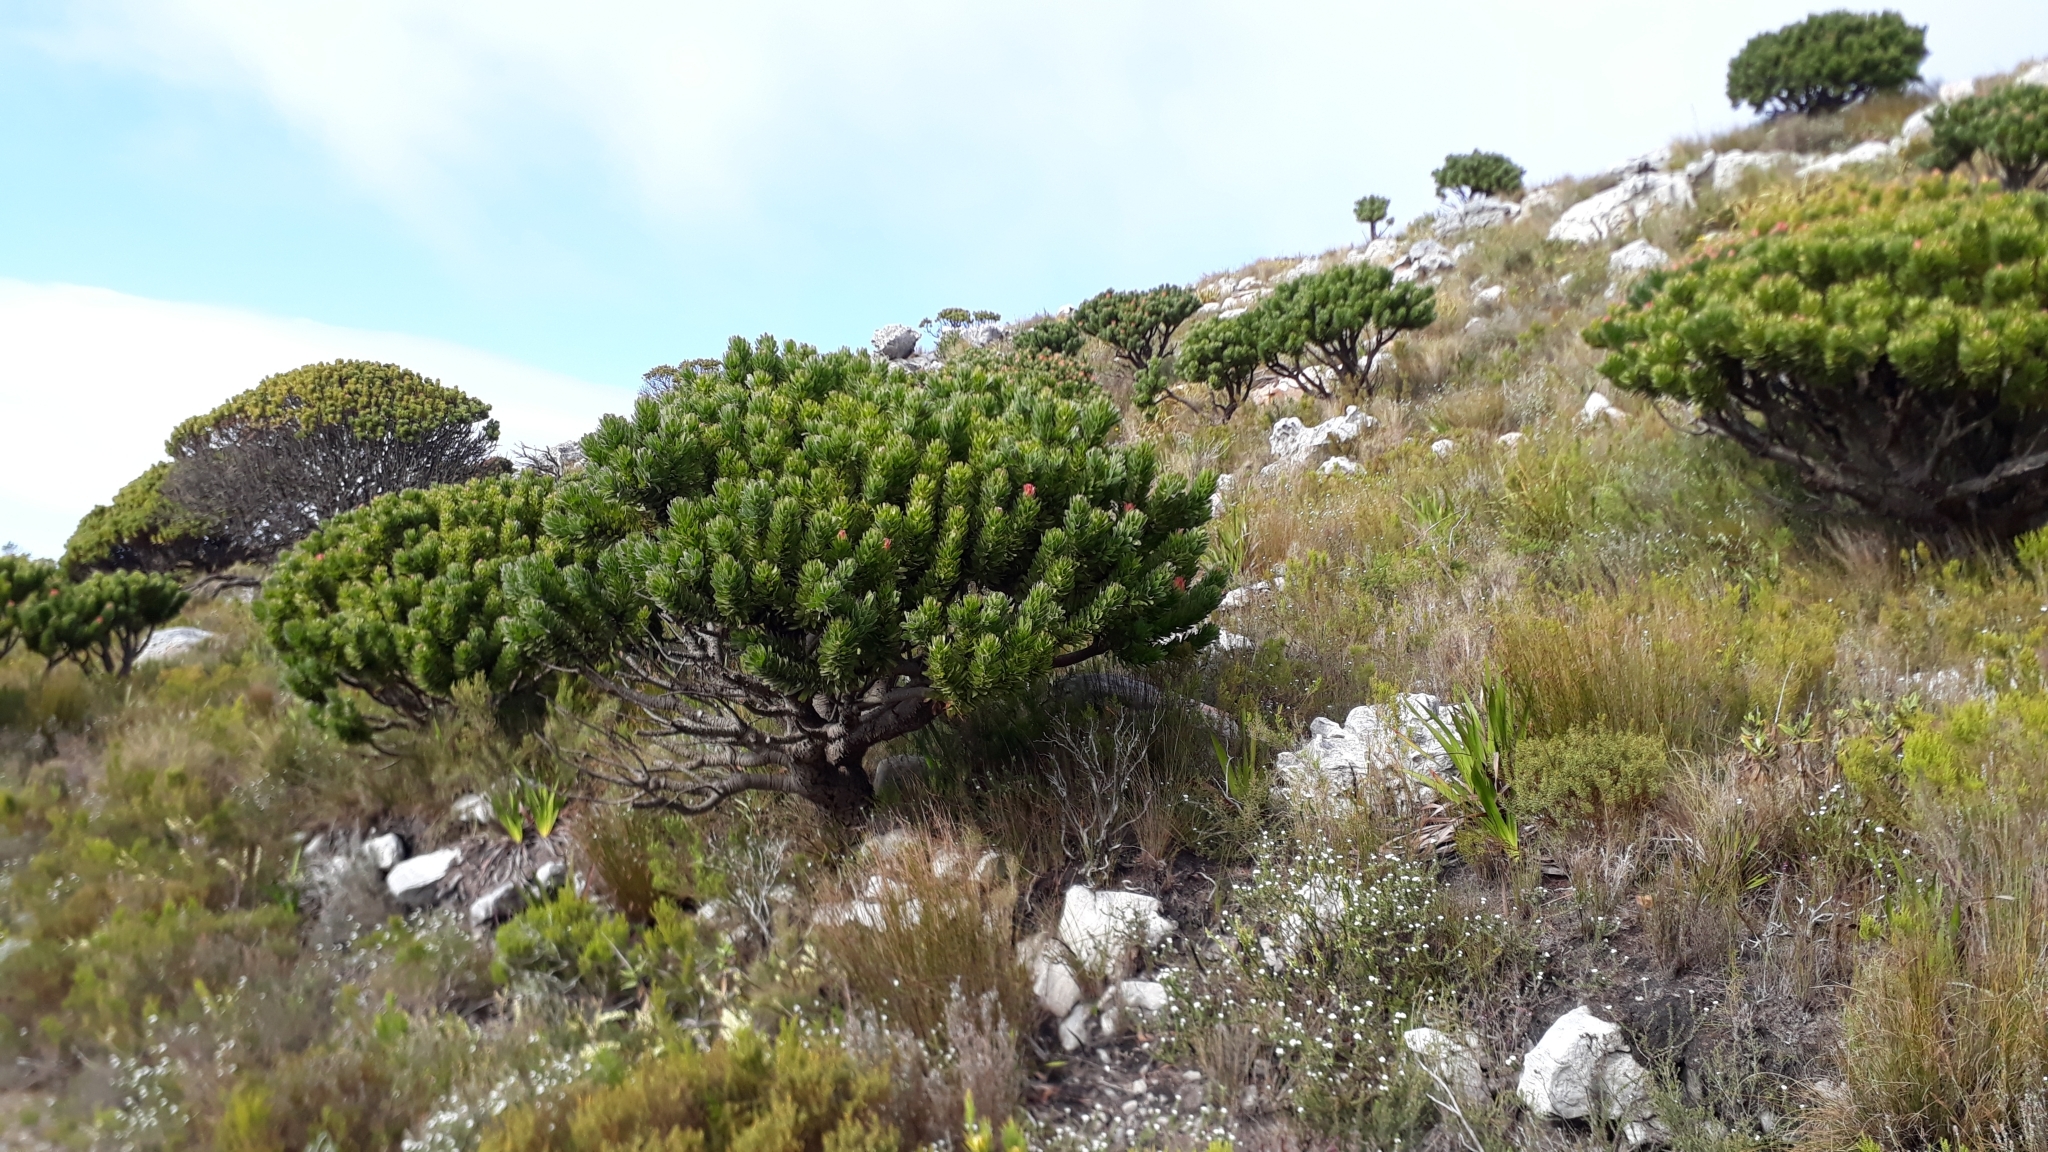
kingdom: Plantae
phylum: Tracheophyta
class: Magnoliopsida
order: Proteales
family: Proteaceae
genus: Mimetes
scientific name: Mimetes fimbriifolius
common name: Fringed bottlebrush
